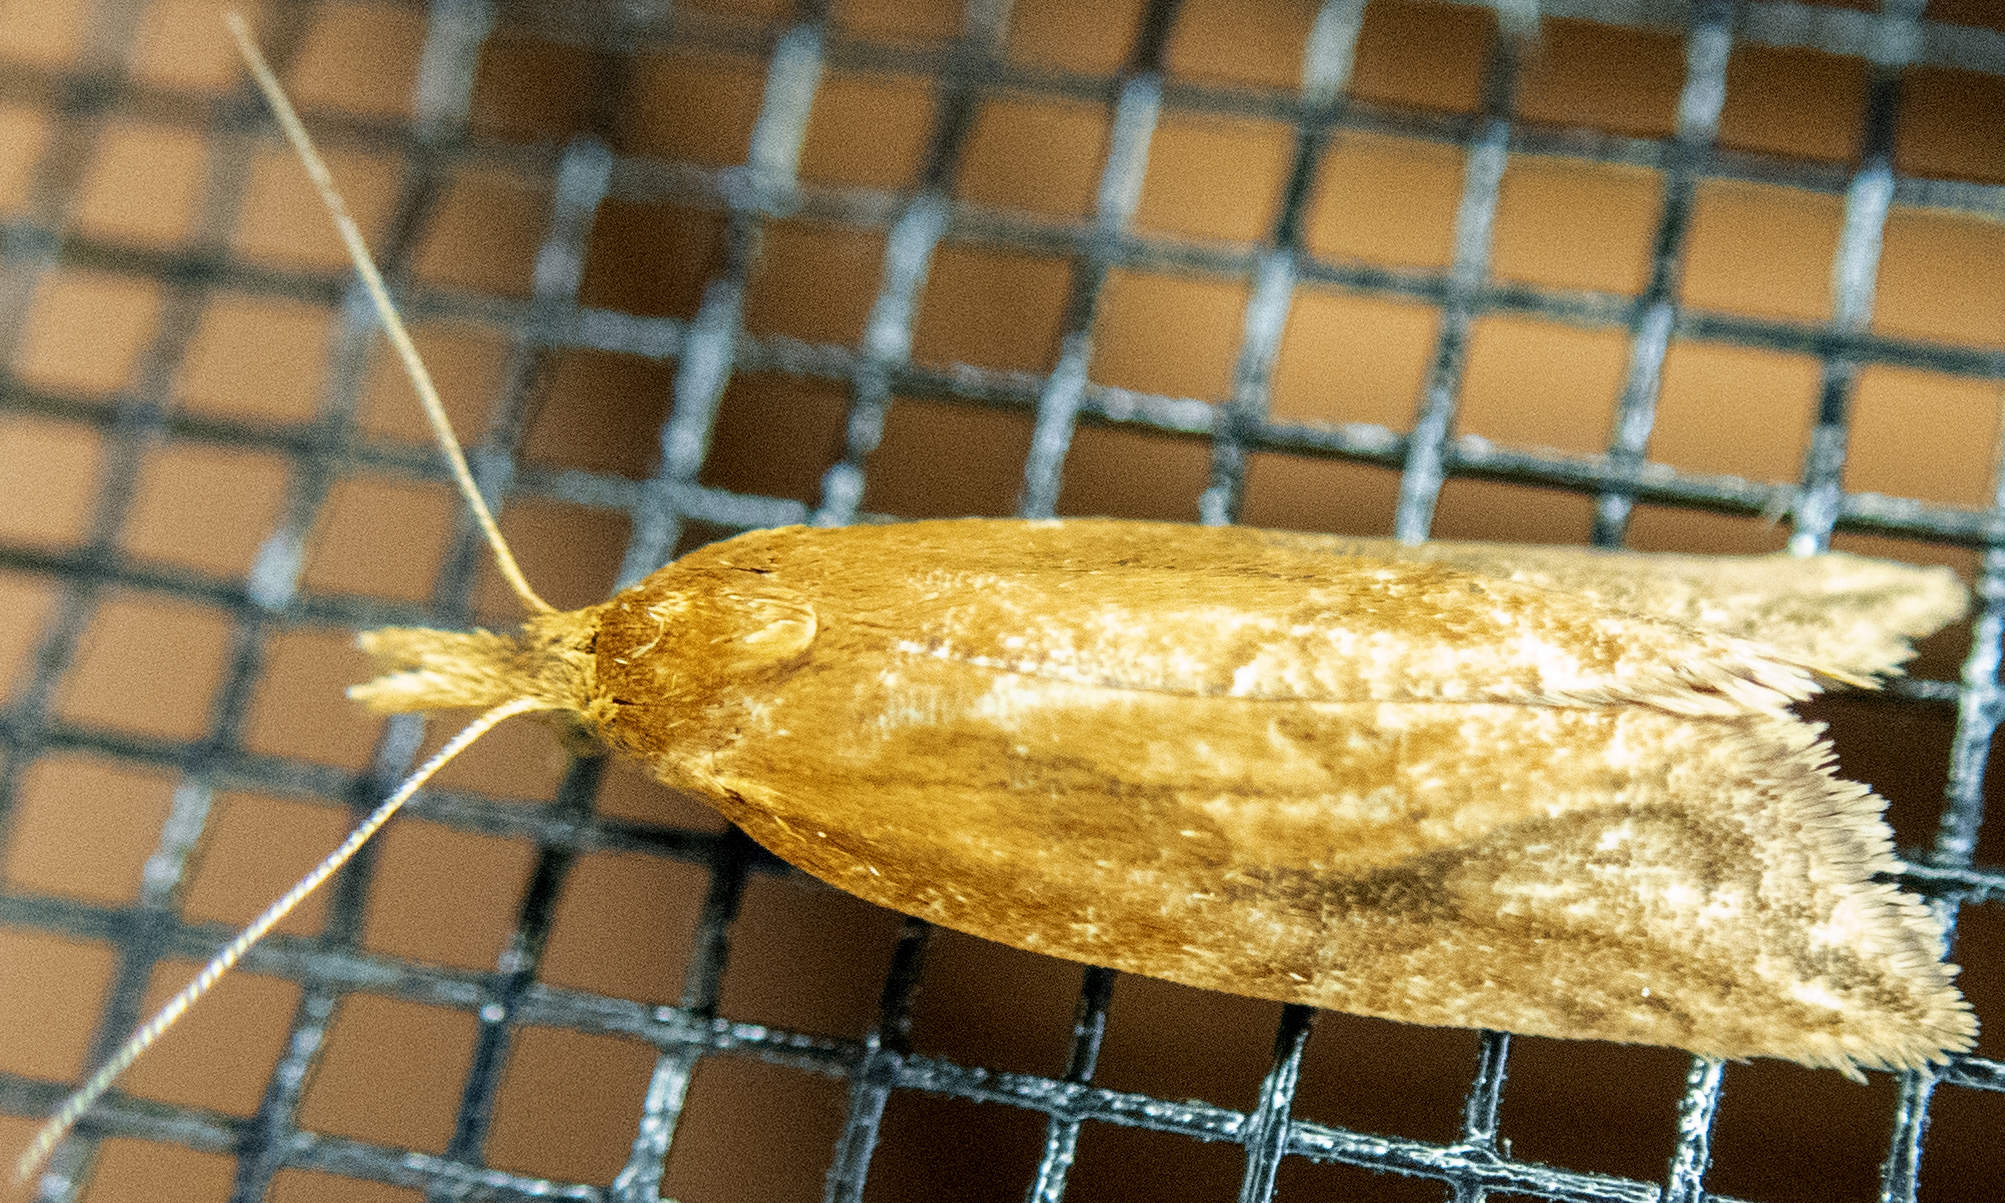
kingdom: Animalia
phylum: Arthropoda
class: Insecta
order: Lepidoptera
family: Tortricidae
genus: Aethes
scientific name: Aethes biscana
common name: Reddish aethes
